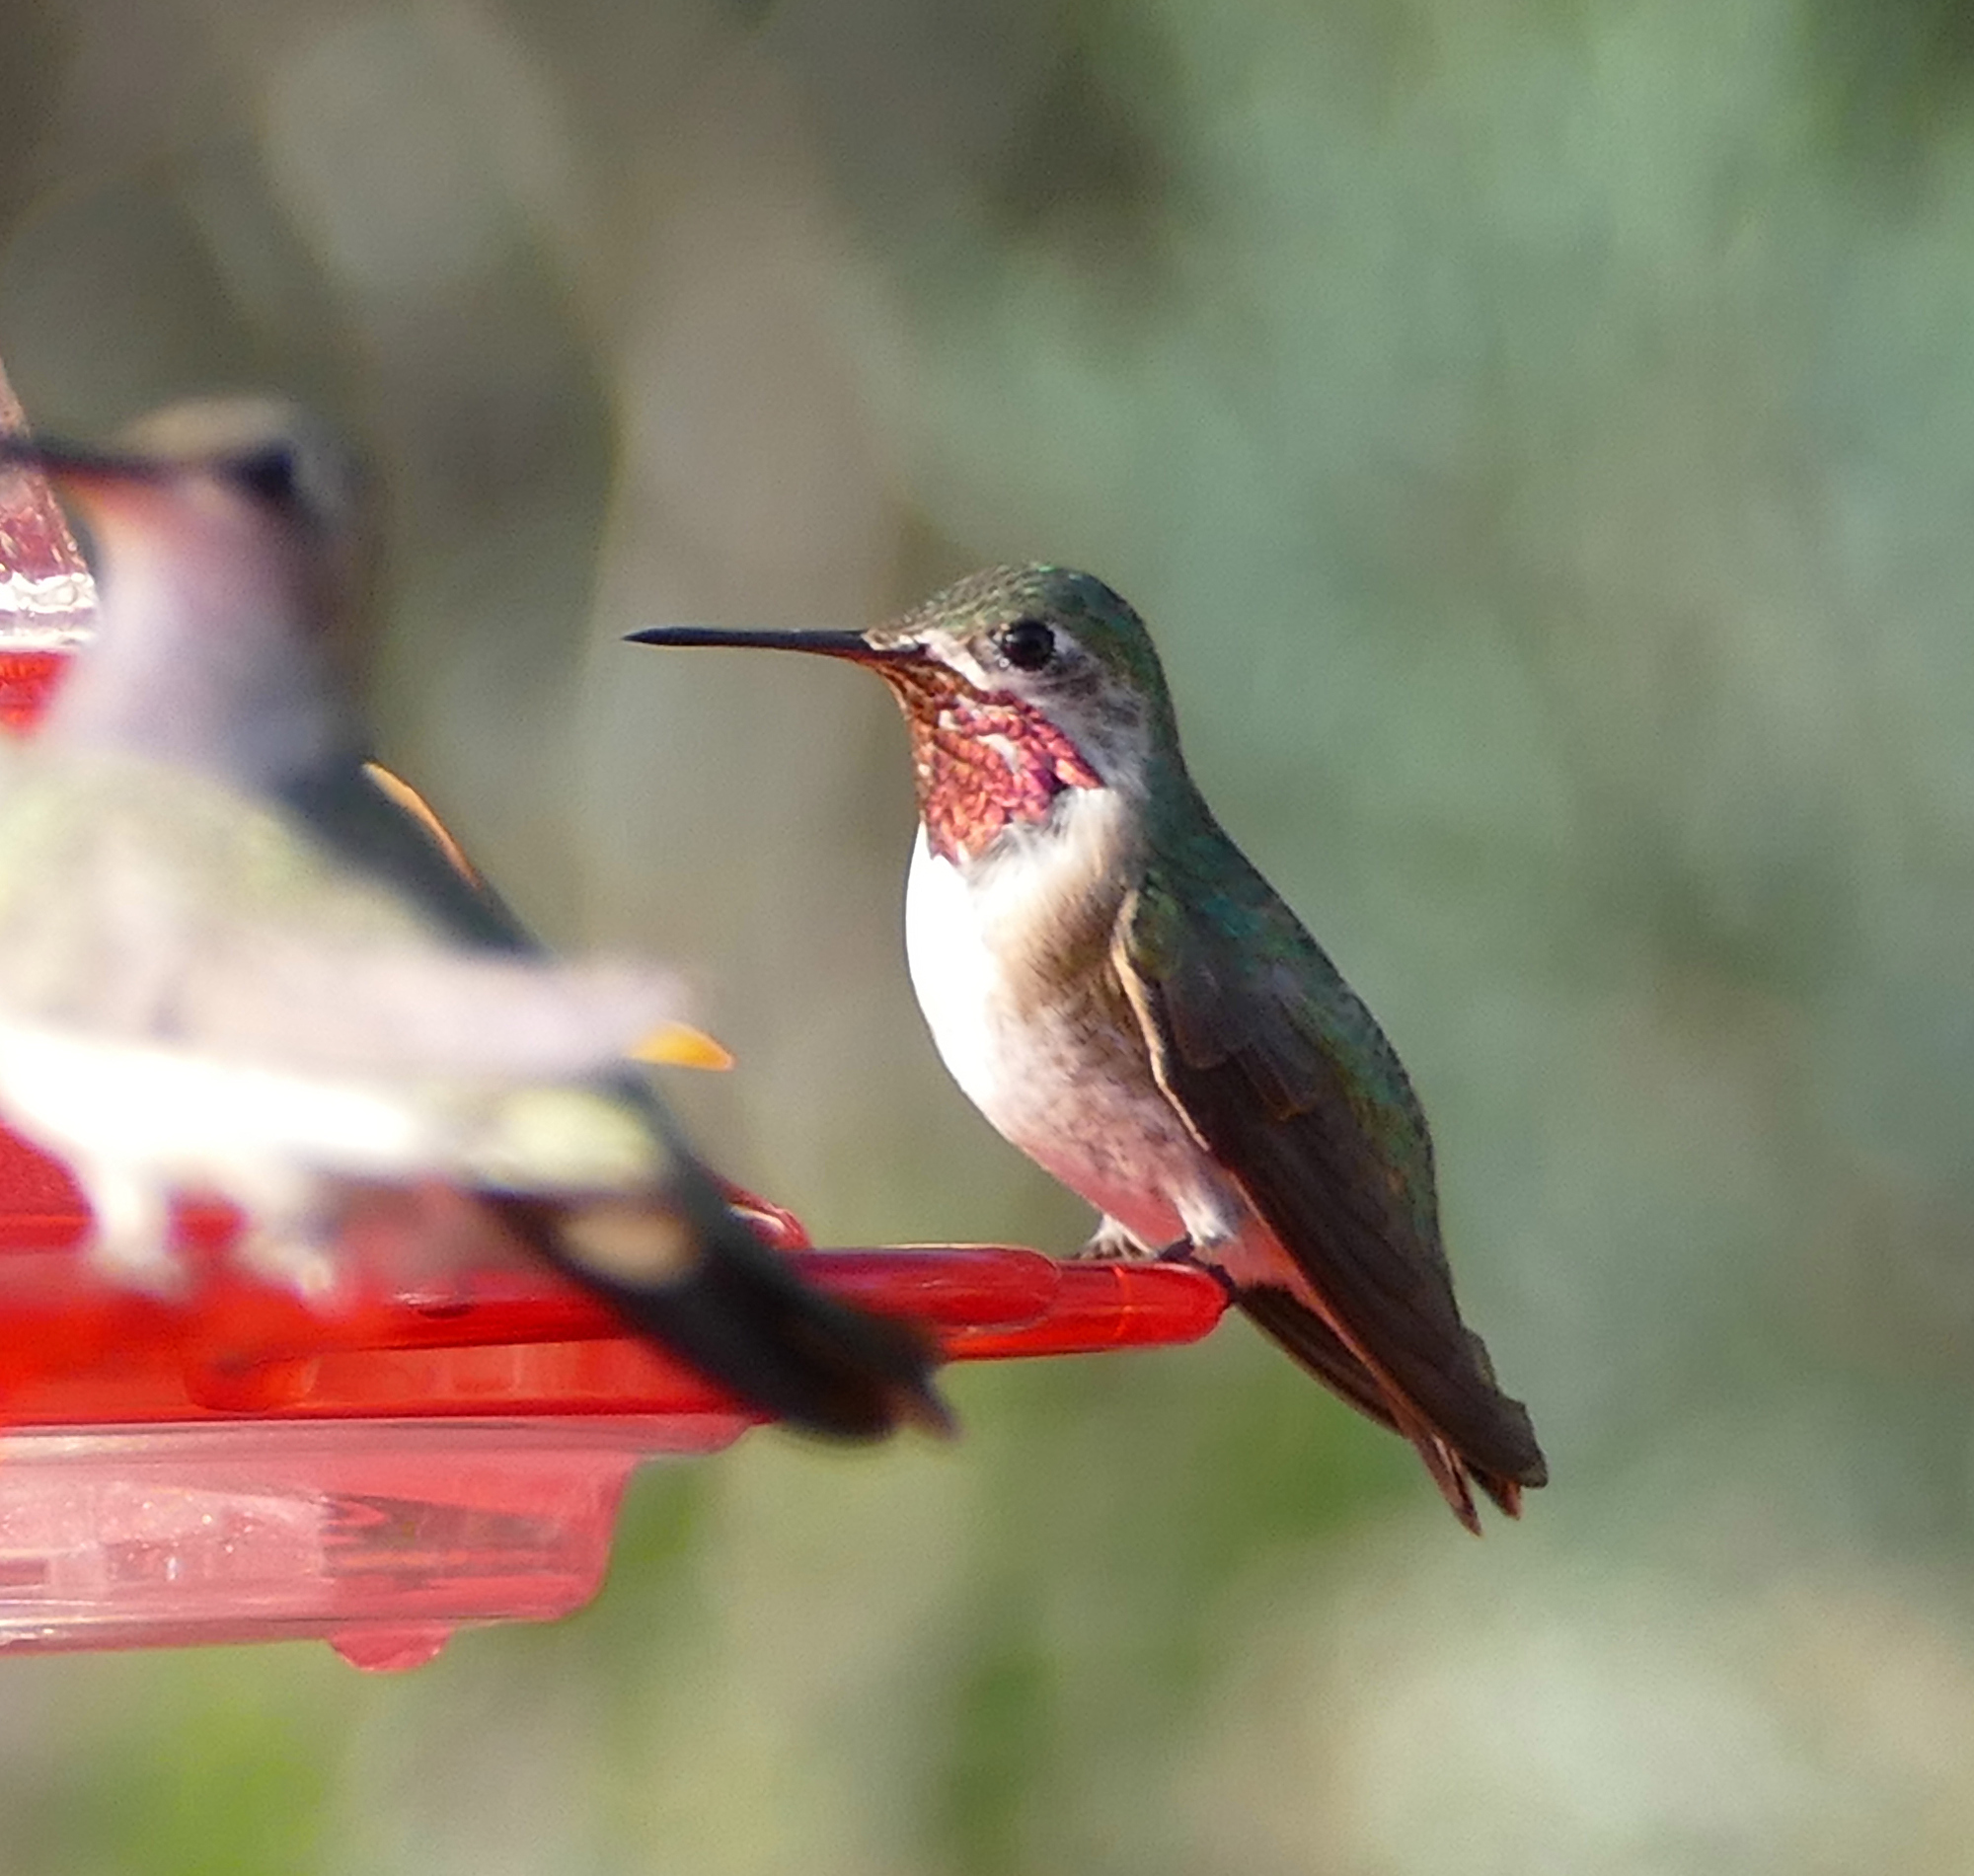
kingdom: Animalia
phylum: Chordata
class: Aves
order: Apodiformes
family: Trochilidae
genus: Selasphorus
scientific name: Selasphorus calliope
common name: Calliope hummingbird
